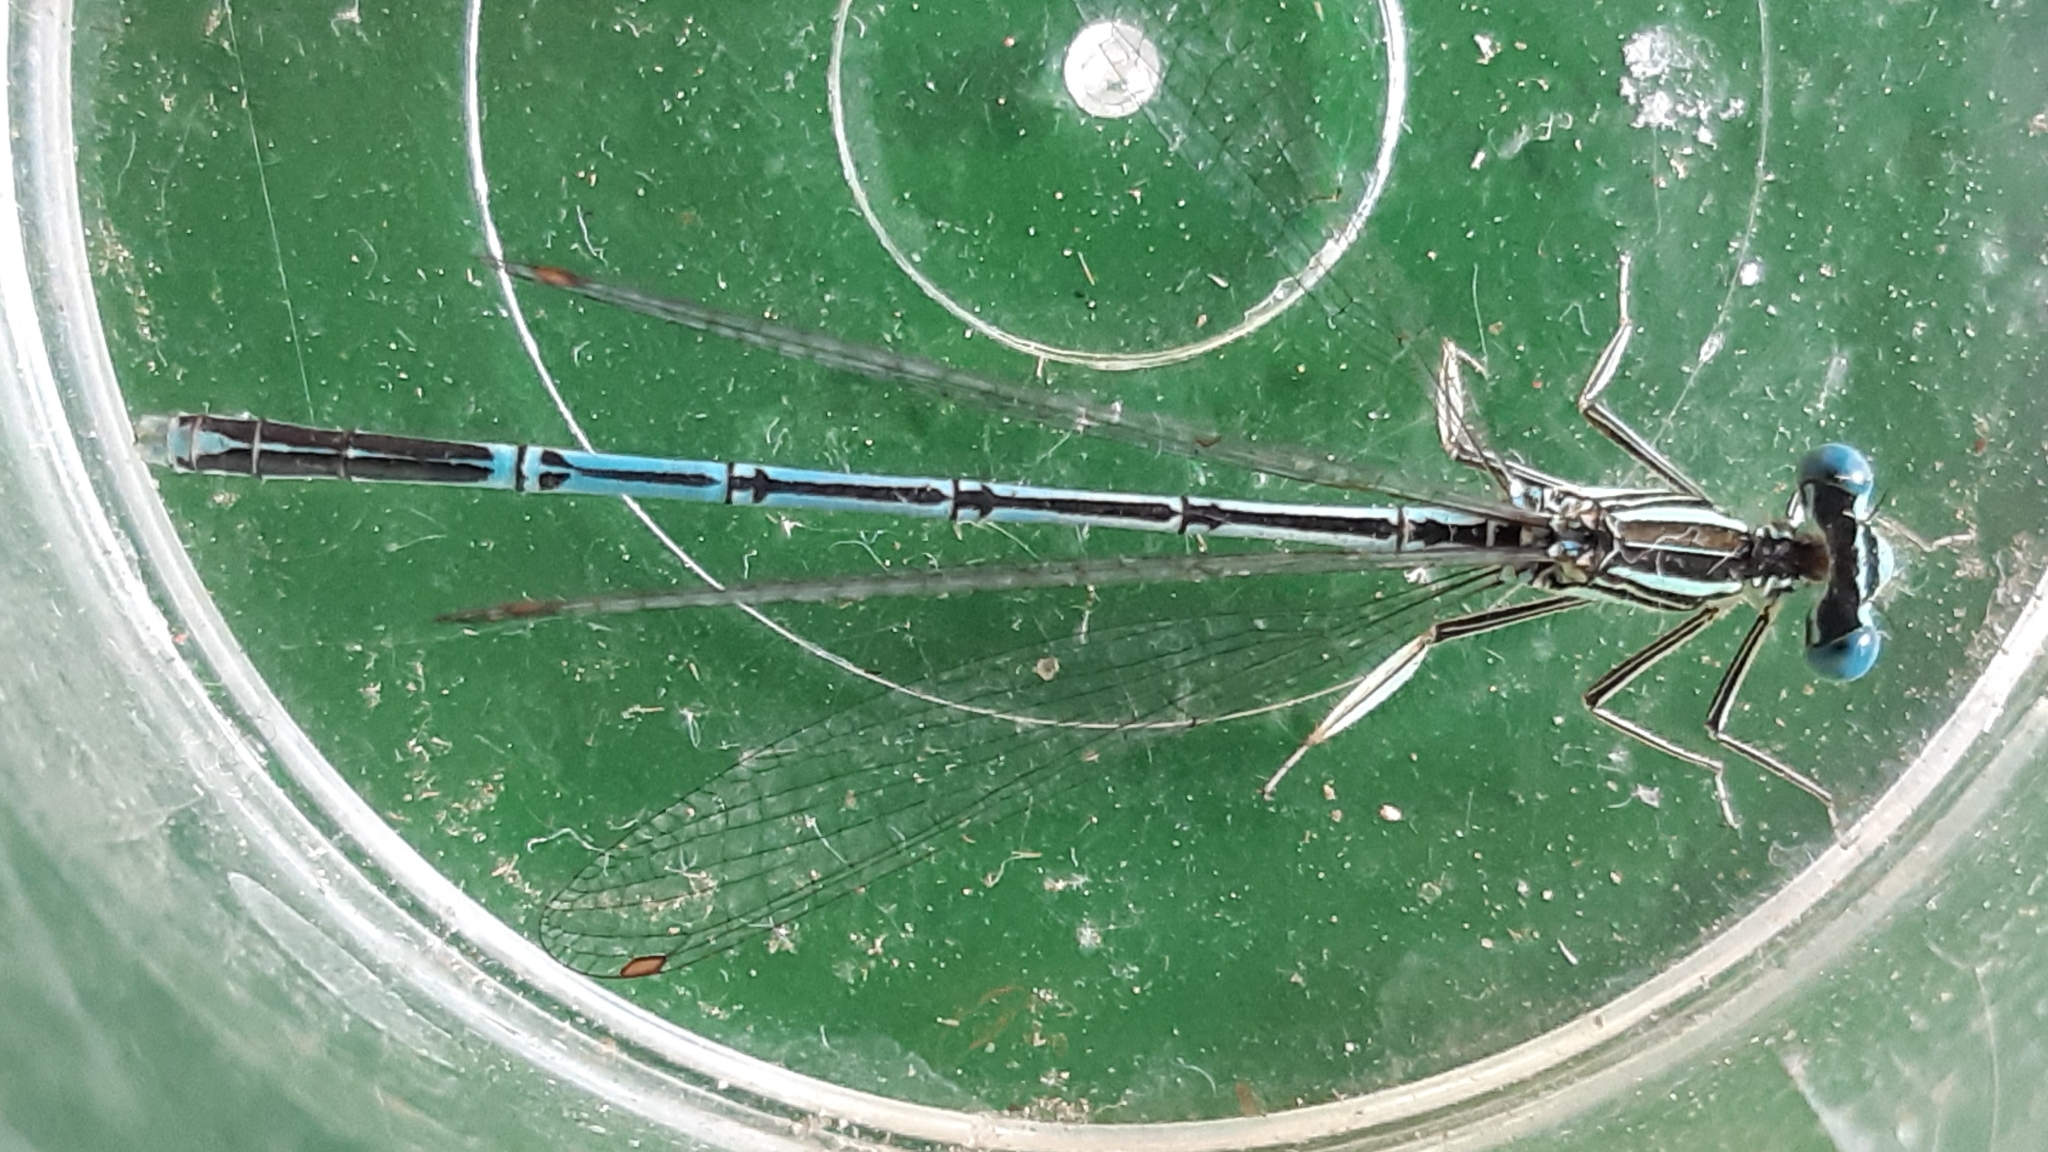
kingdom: Animalia
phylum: Arthropoda
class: Insecta
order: Odonata
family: Platycnemididae
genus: Platycnemis
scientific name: Platycnemis pennipes
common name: White-legged damselfly
